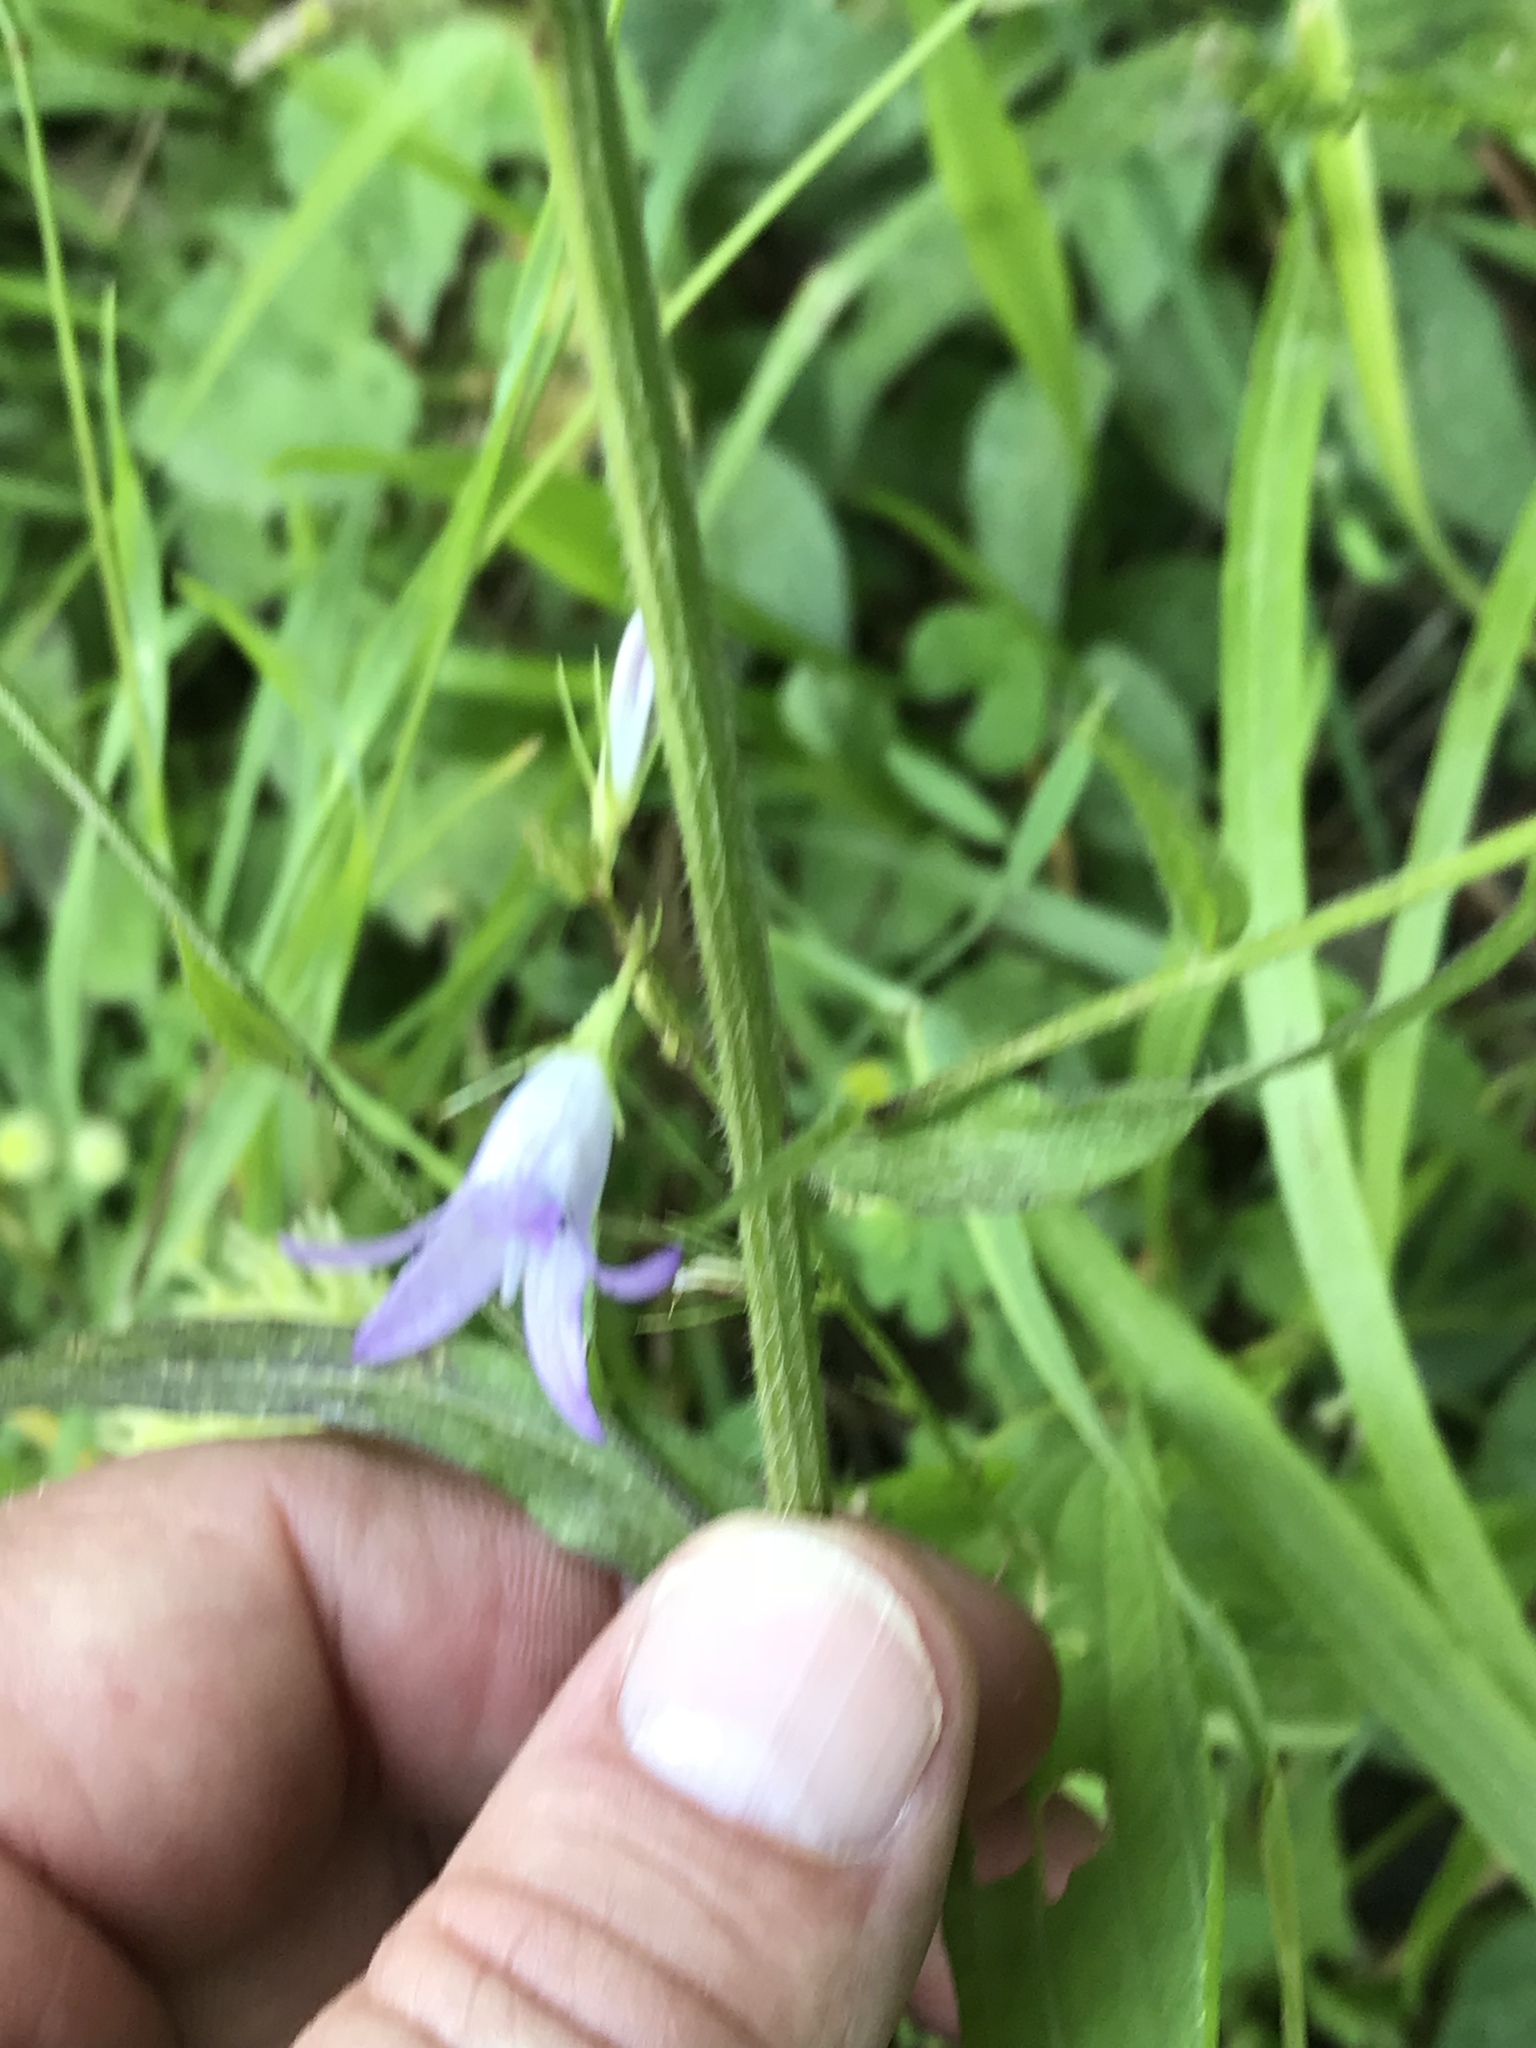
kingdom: Plantae
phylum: Tracheophyta
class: Magnoliopsida
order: Asterales
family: Campanulaceae
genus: Campanula
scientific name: Campanula rapunculus
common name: Rampion bellflower
